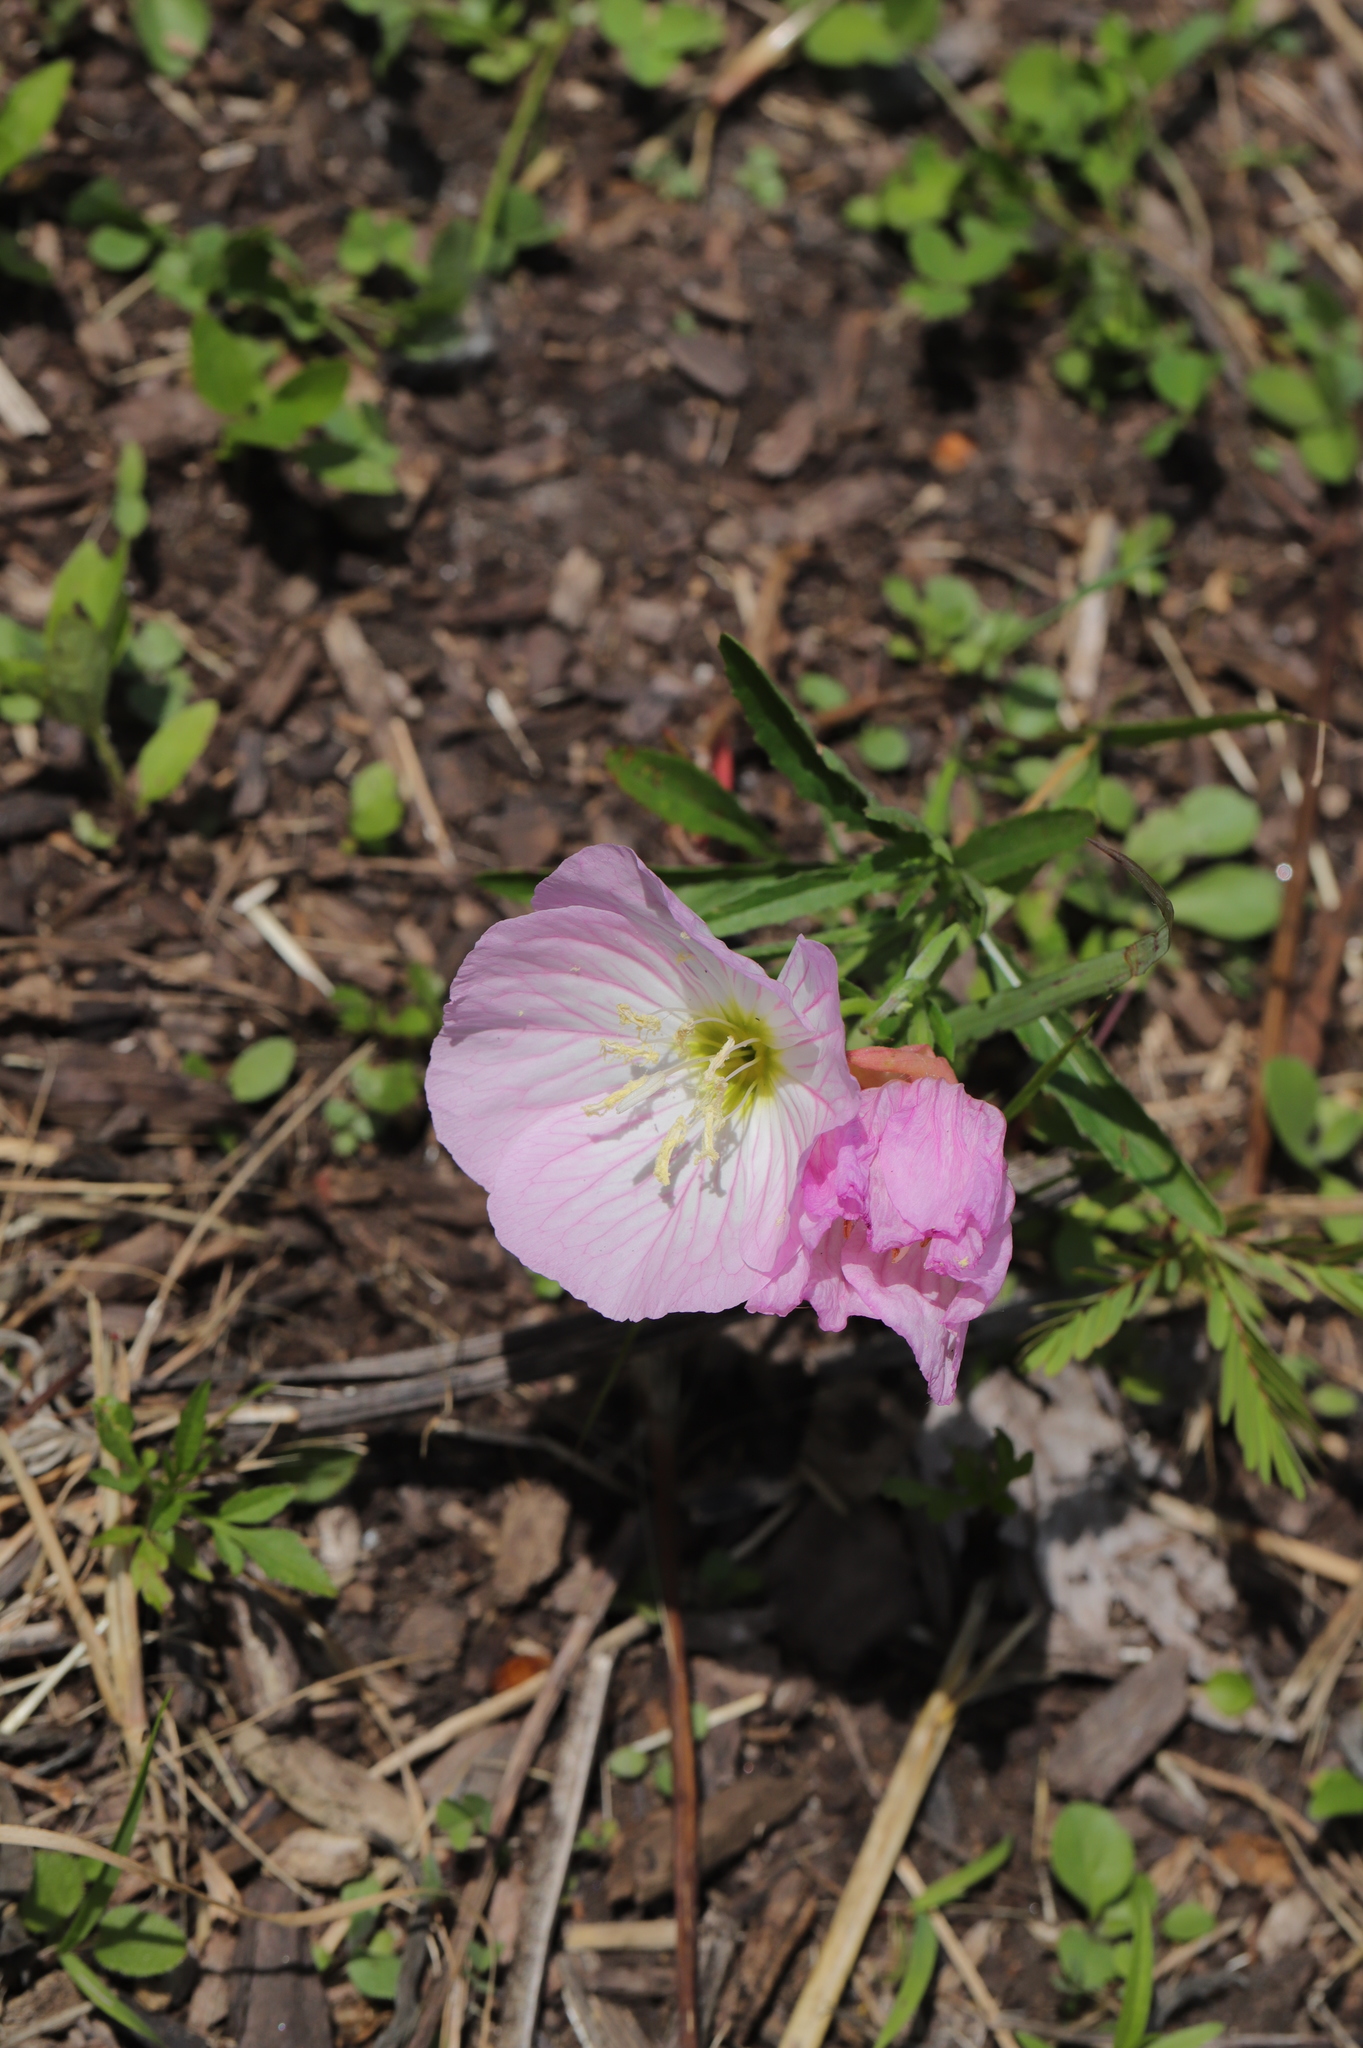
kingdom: Plantae
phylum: Tracheophyta
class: Magnoliopsida
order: Myrtales
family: Onagraceae
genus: Oenothera
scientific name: Oenothera speciosa
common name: White evening-primrose
